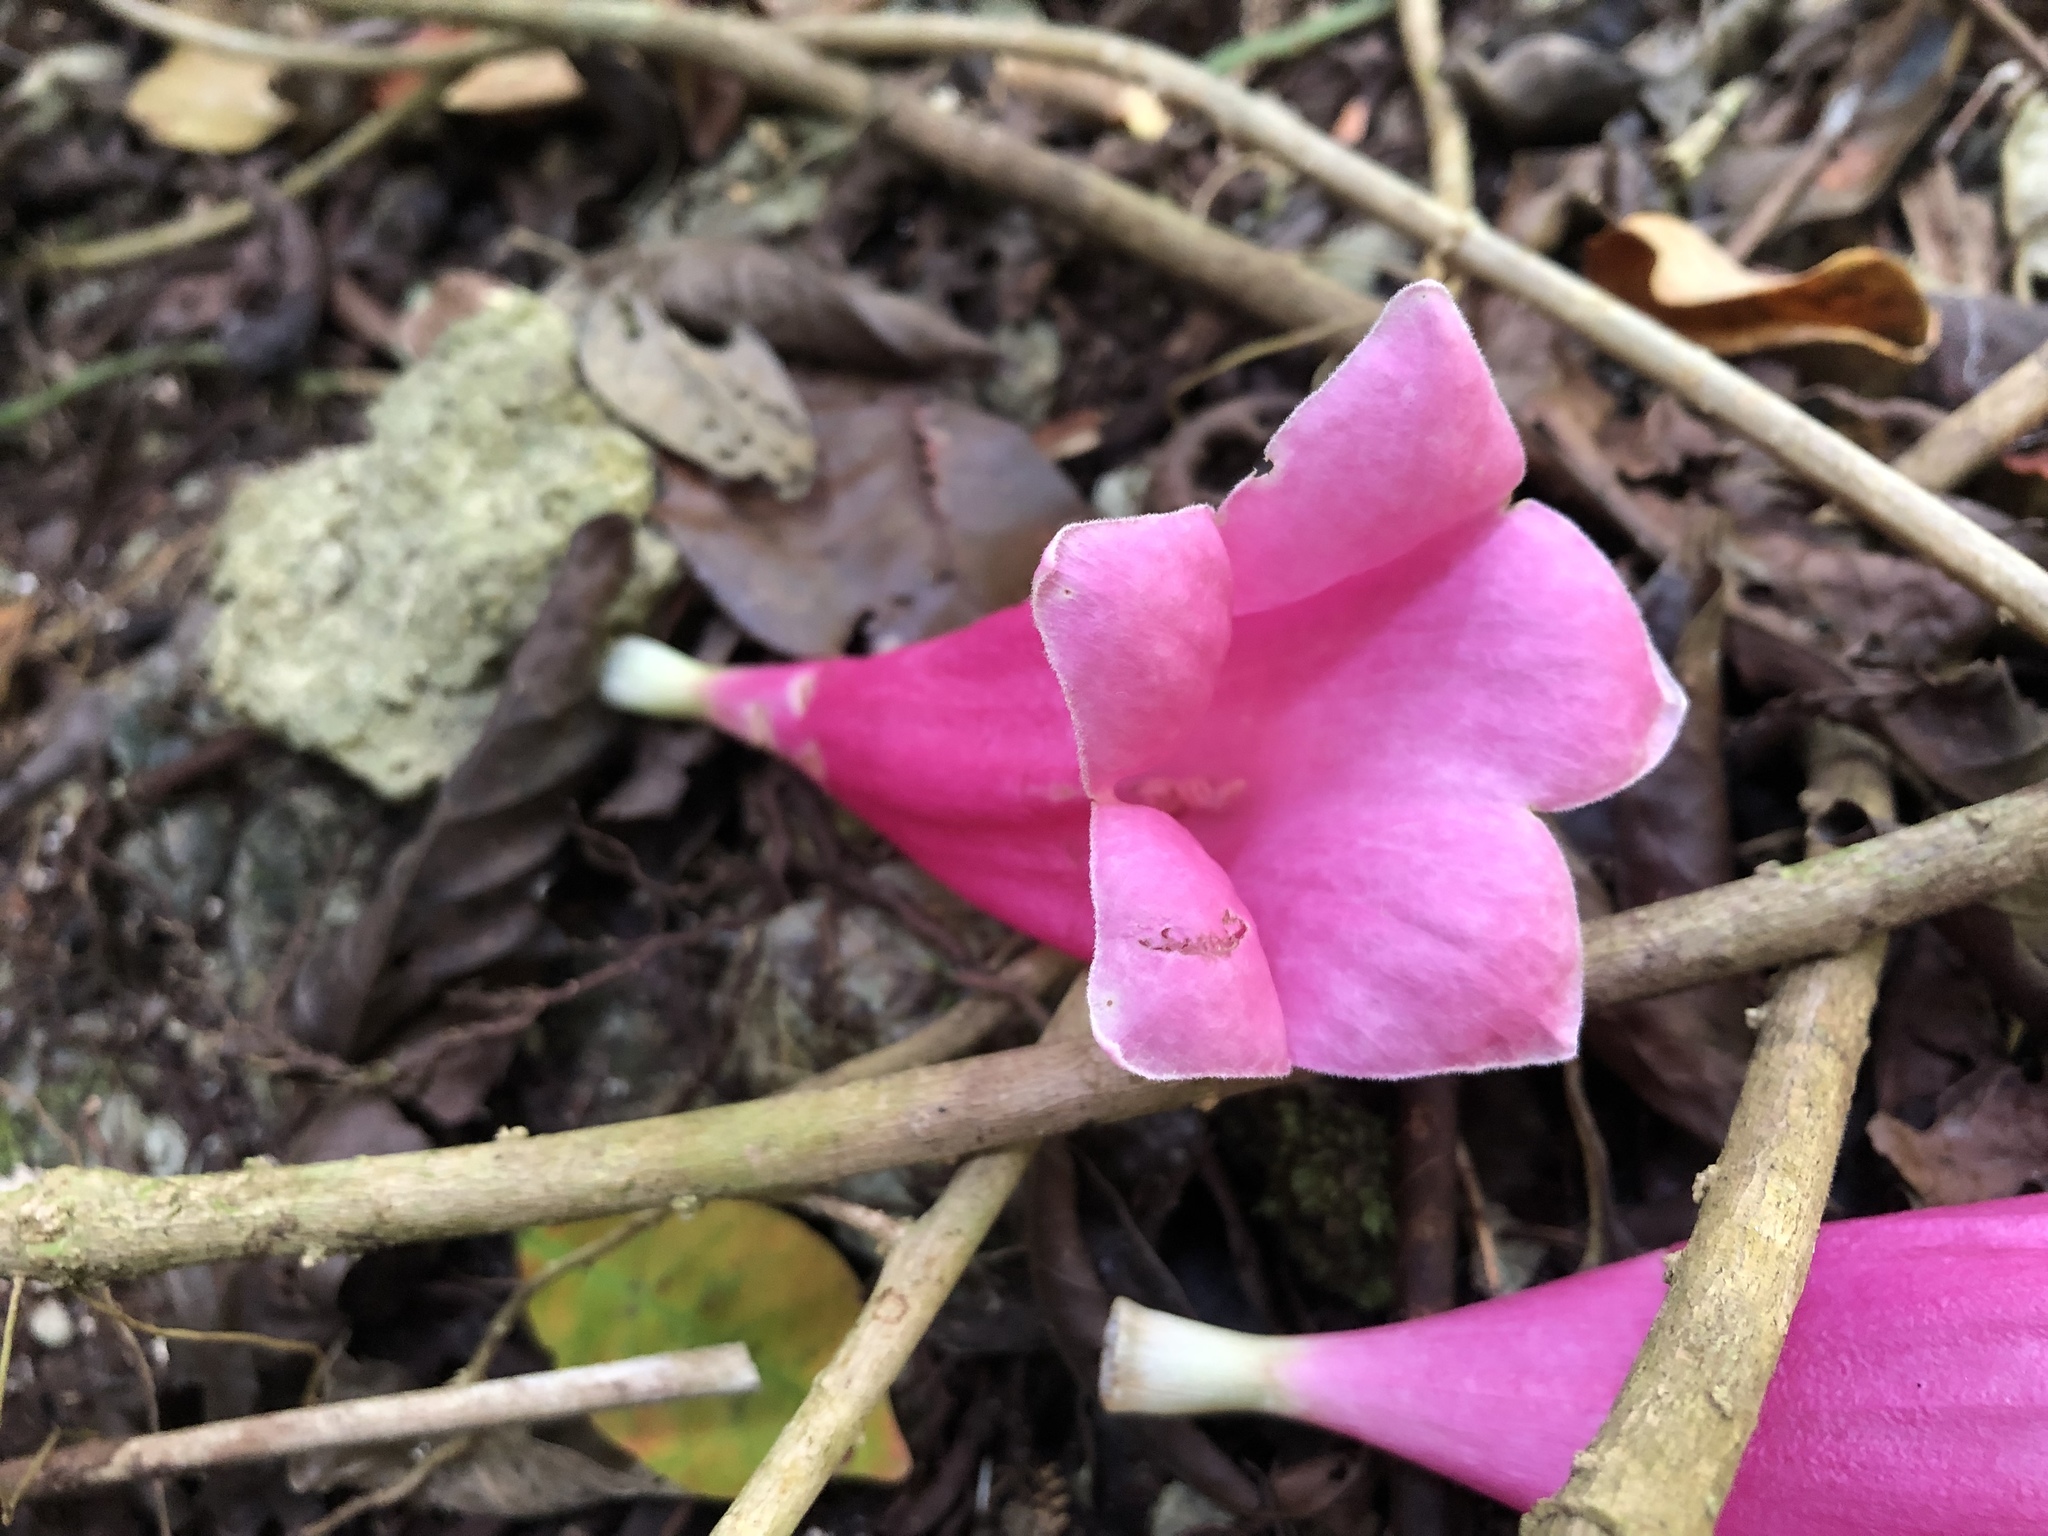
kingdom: Plantae
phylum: Tracheophyta
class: Magnoliopsida
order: Lamiales
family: Bignoniaceae
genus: Tecomanthe
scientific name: Tecomanthe dendrophila
